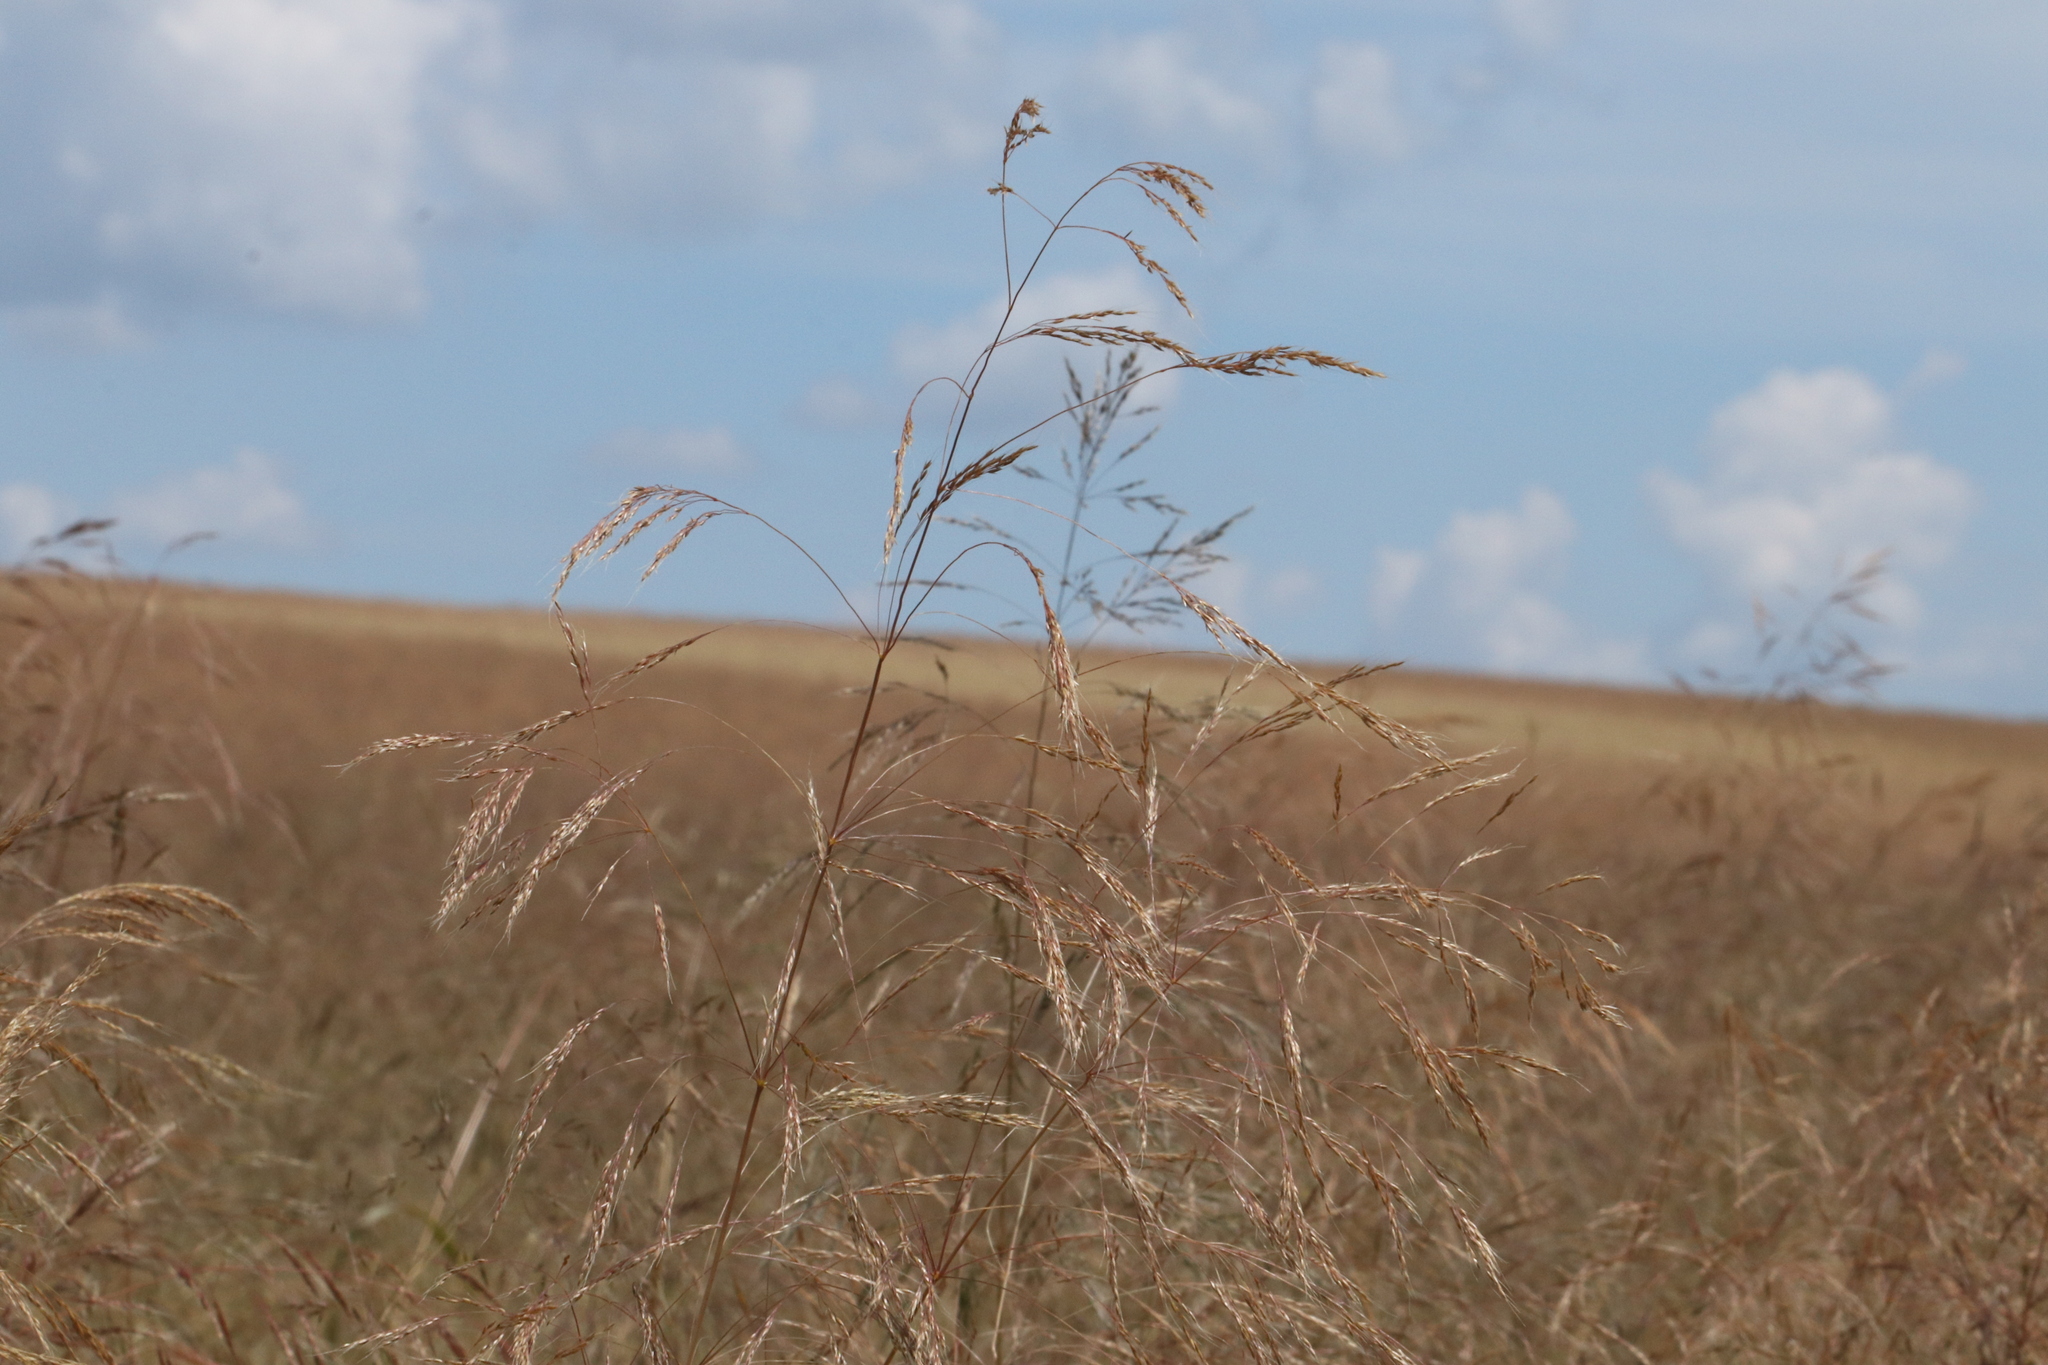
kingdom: Plantae
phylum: Tracheophyta
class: Liliopsida
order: Poales
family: Poaceae
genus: Apera
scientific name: Apera spica-venti
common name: Loose silky-bent
